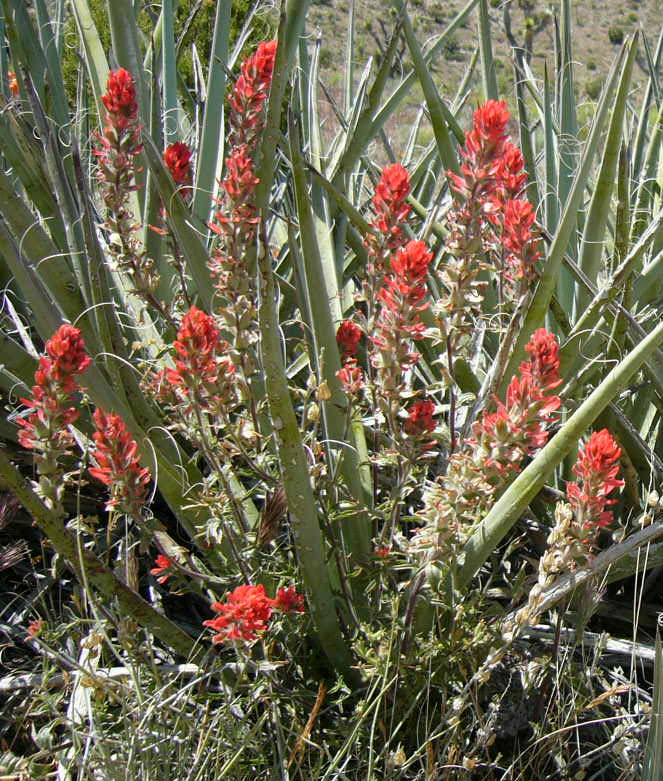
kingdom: Plantae
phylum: Tracheophyta
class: Magnoliopsida
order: Lamiales
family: Orobanchaceae
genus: Castilleja
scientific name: Castilleja chromosa
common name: Desert paintbrush
